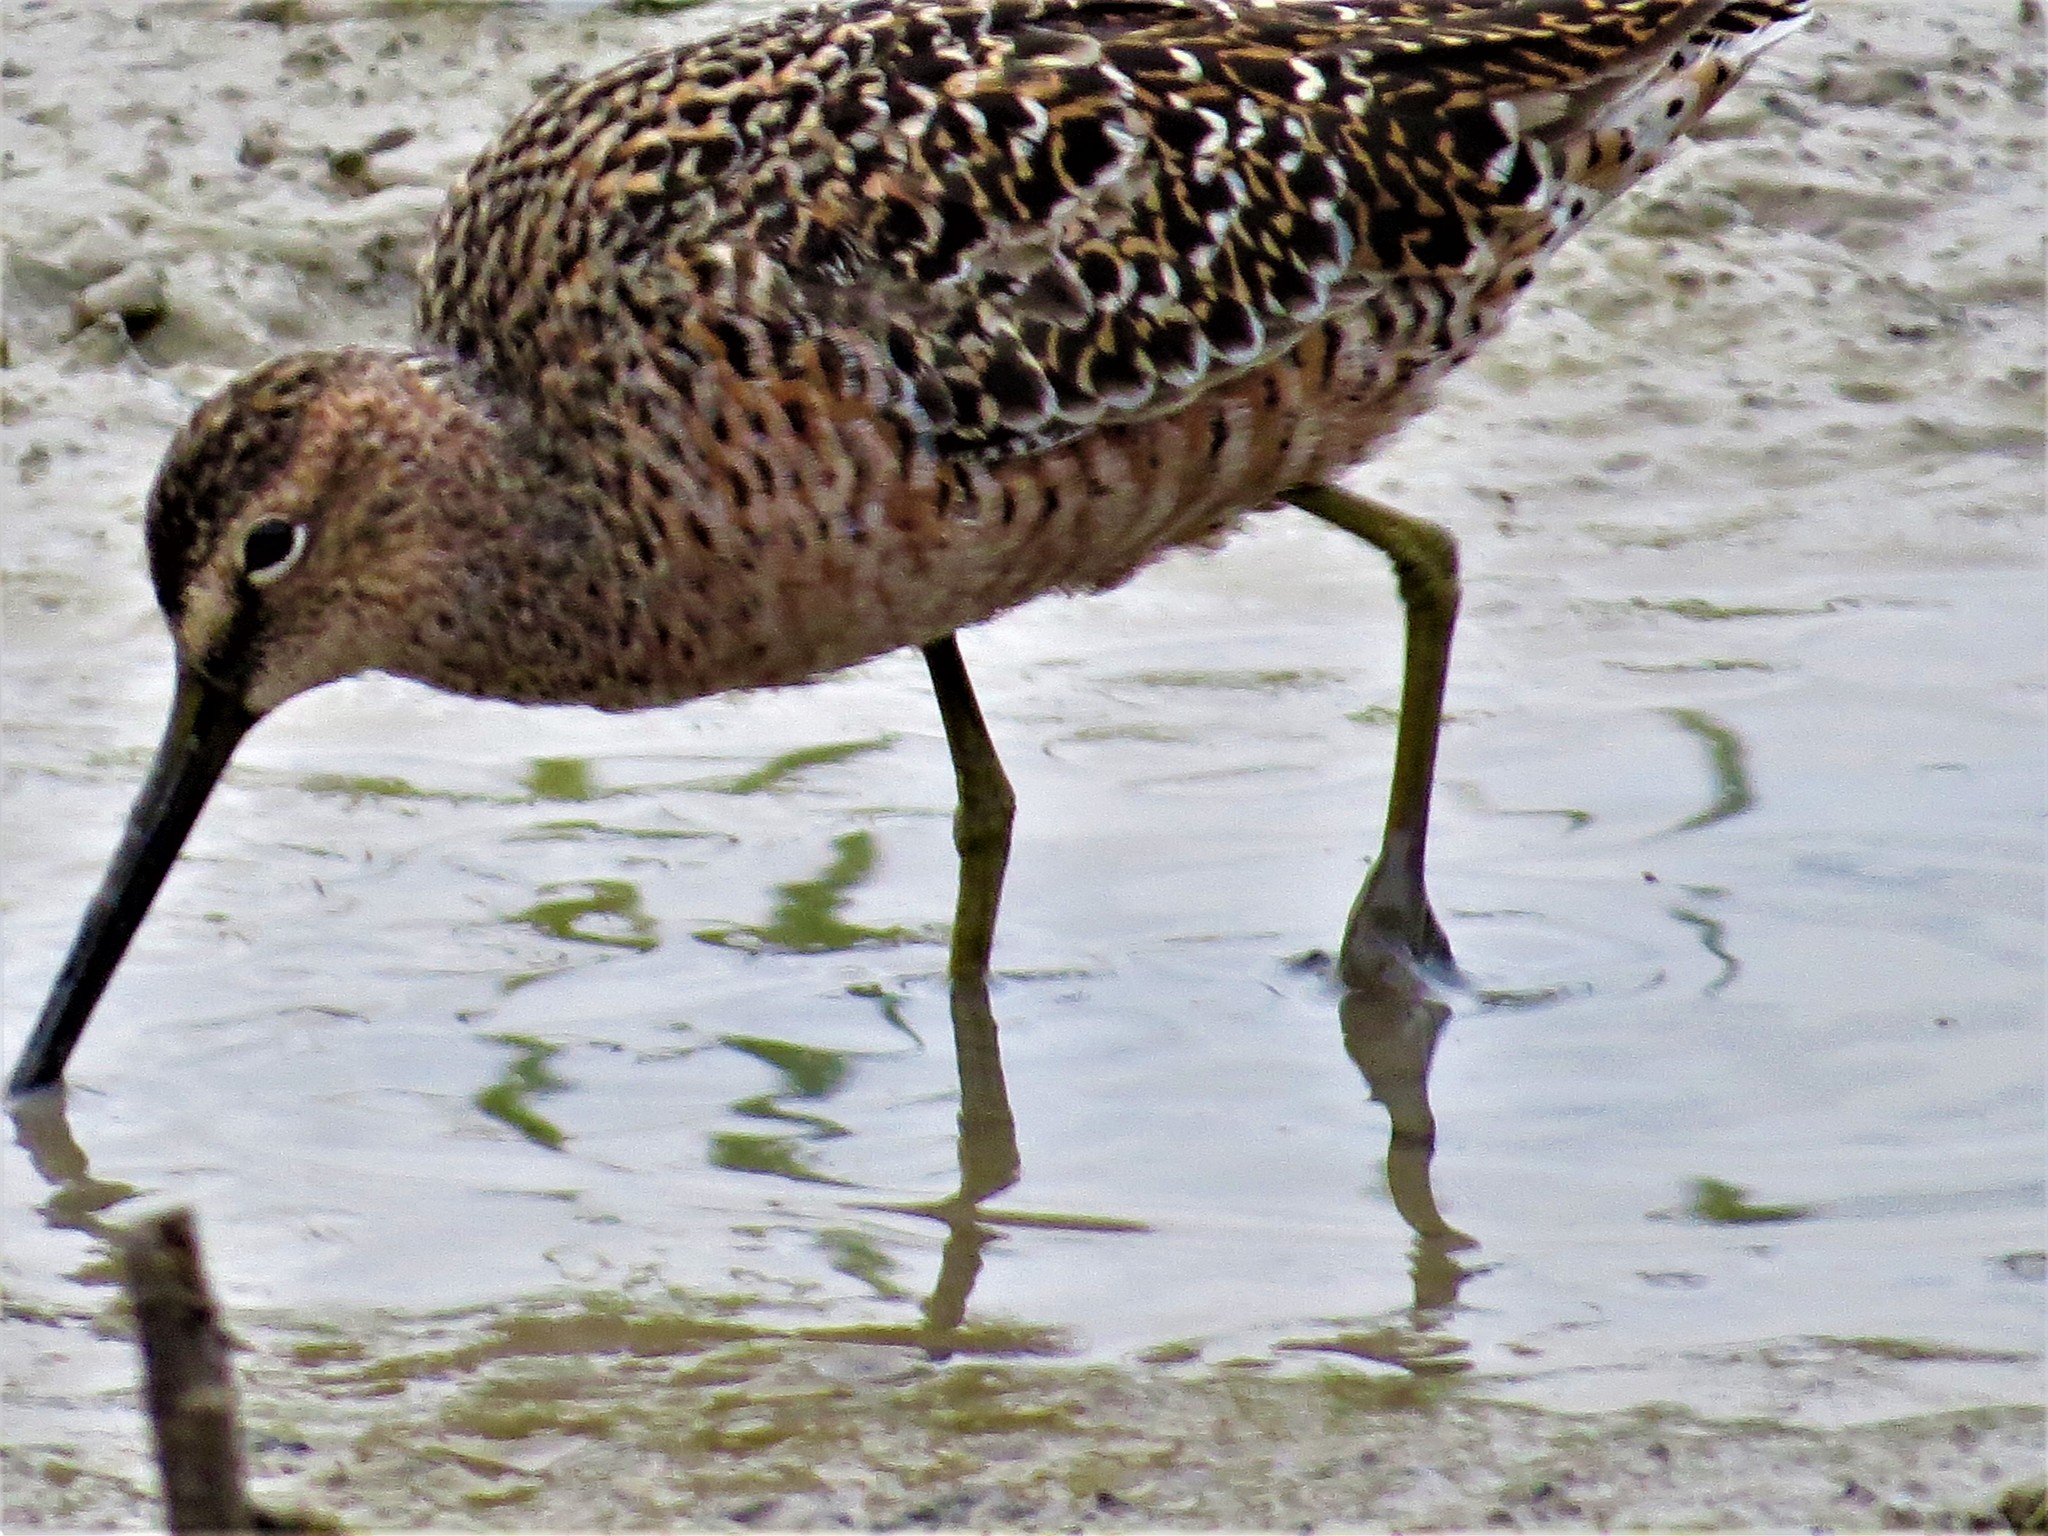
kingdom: Animalia
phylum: Chordata
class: Aves
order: Charadriiformes
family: Scolopacidae
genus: Limnodromus
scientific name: Limnodromus scolopaceus
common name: Long-billed dowitcher
